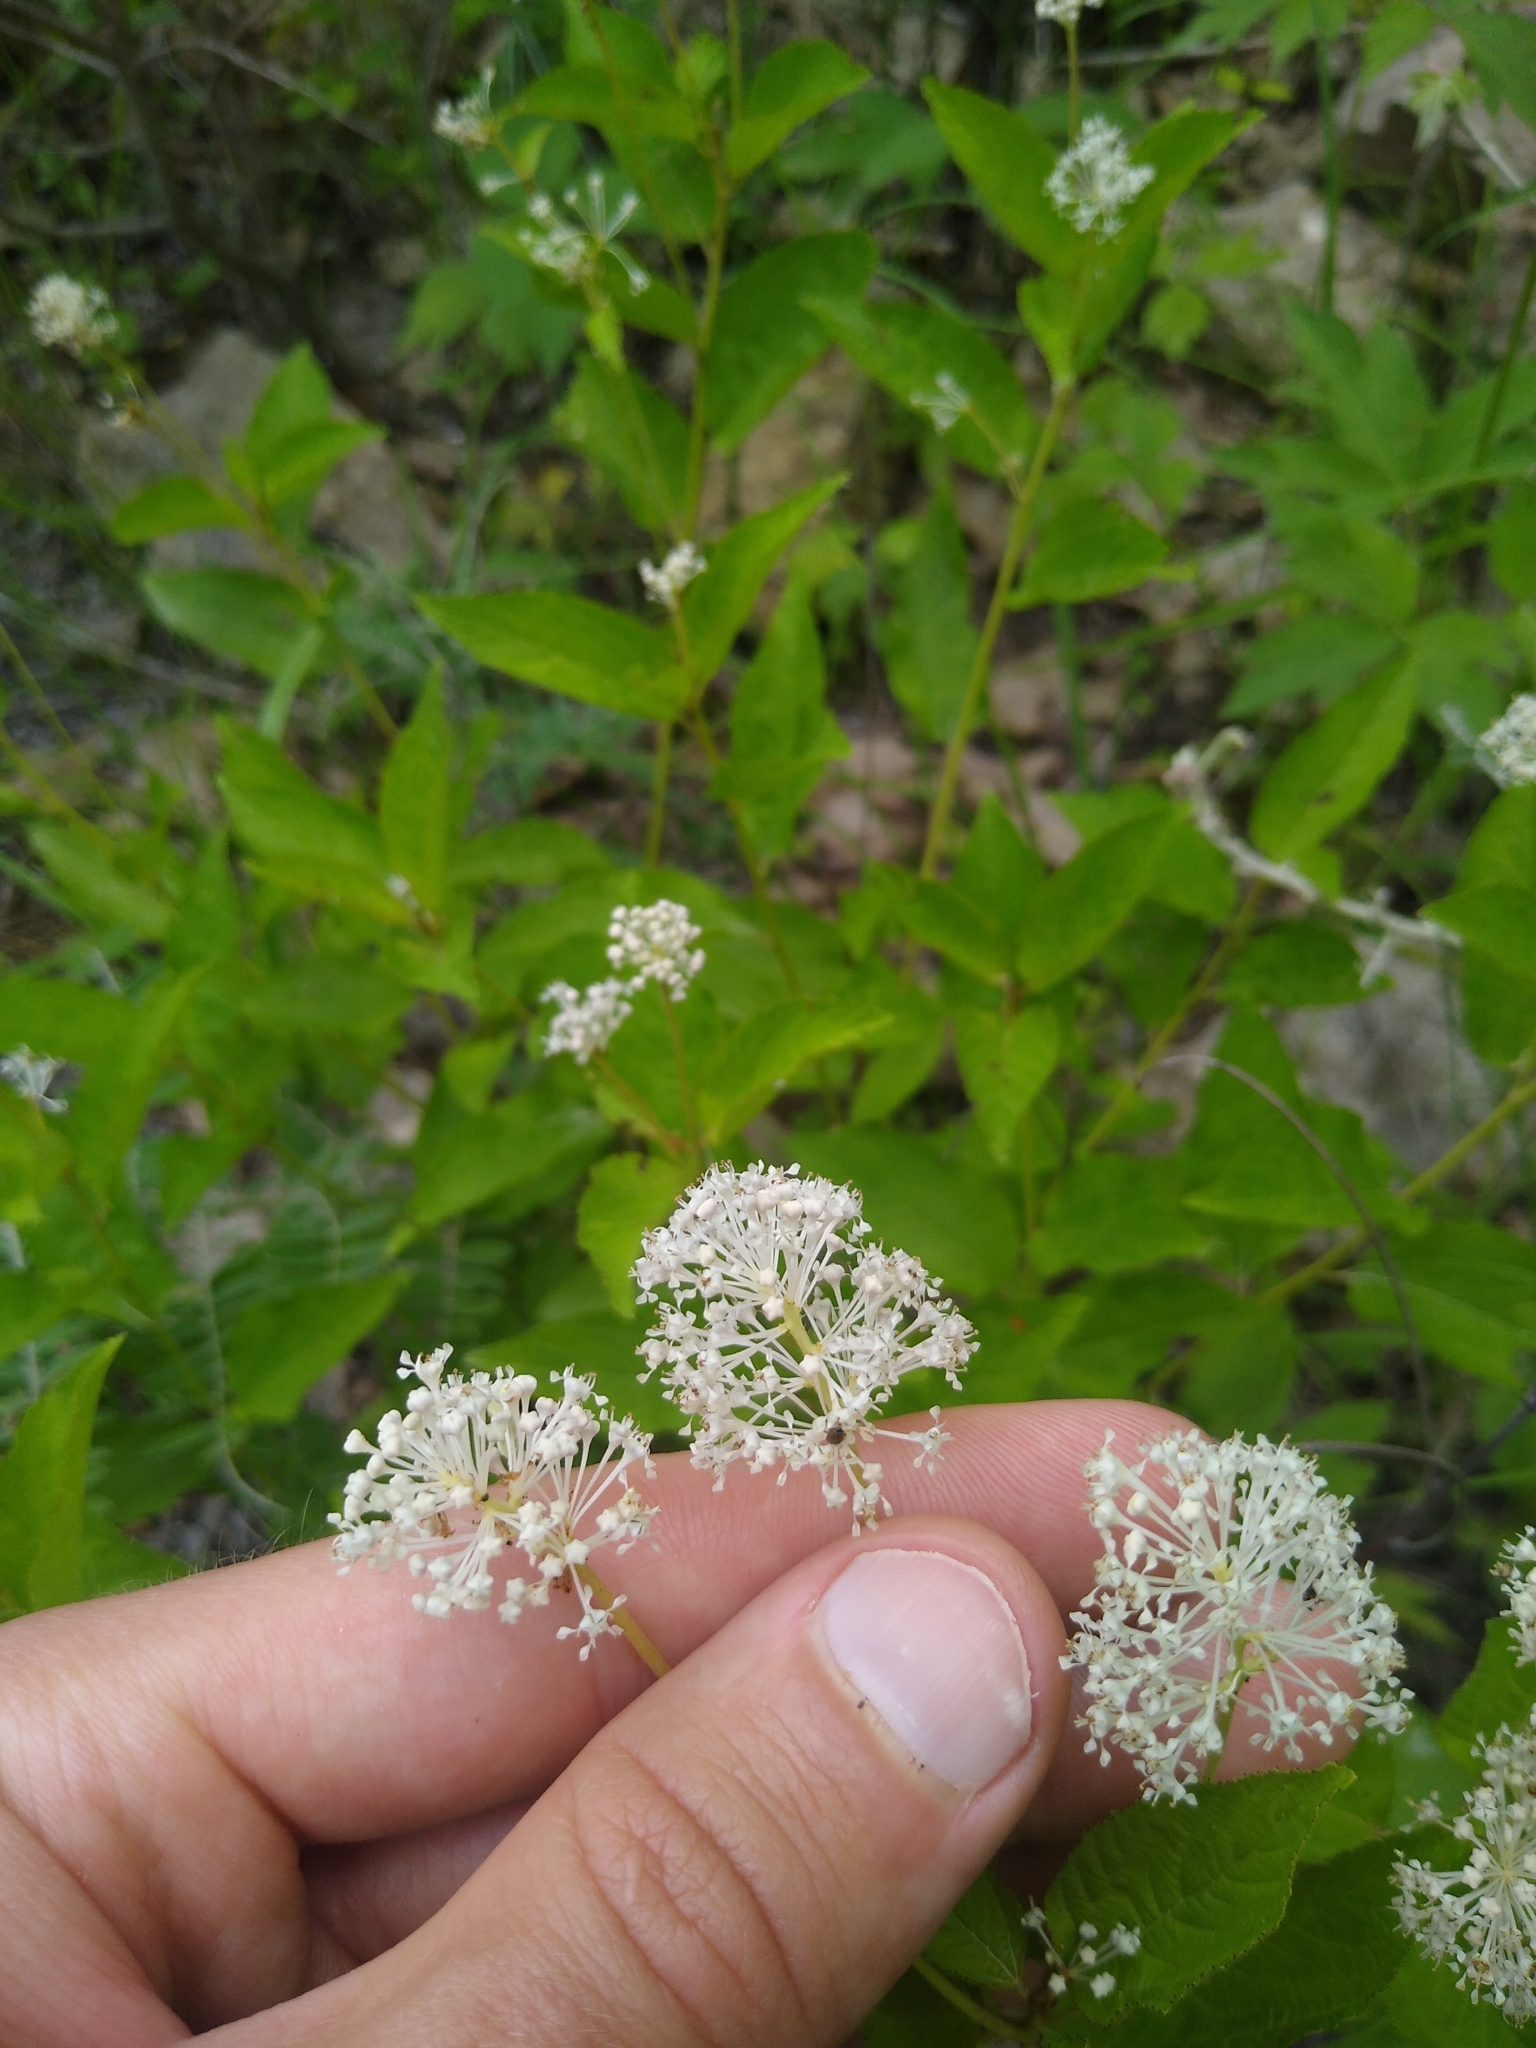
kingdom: Plantae
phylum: Tracheophyta
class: Magnoliopsida
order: Rosales
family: Rhamnaceae
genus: Ceanothus
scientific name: Ceanothus americanus
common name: Redroot
